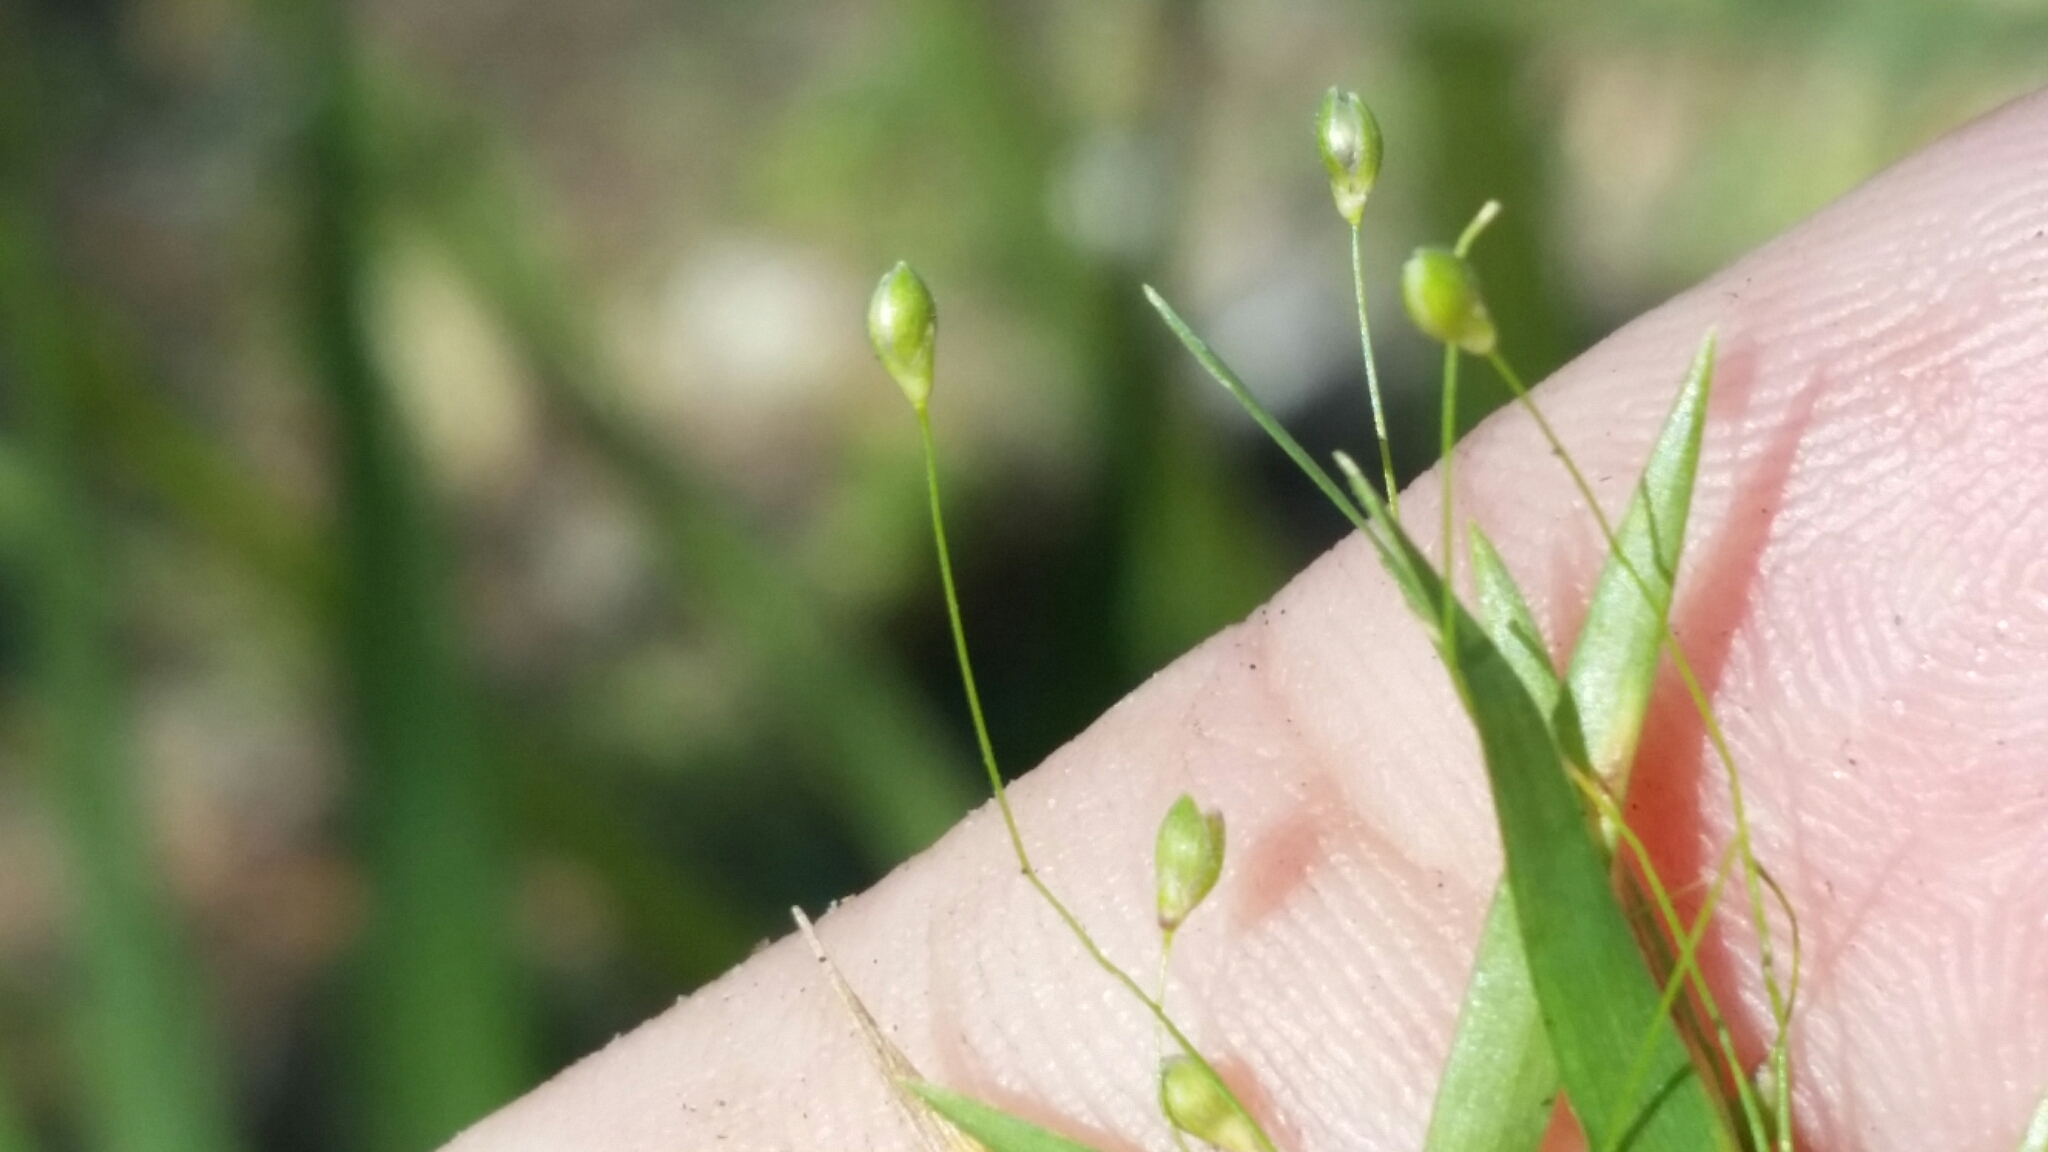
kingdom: Plantae
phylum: Tracheophyta
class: Liliopsida
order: Poales
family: Poaceae
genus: Dichanthelium
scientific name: Dichanthelium lucidum
